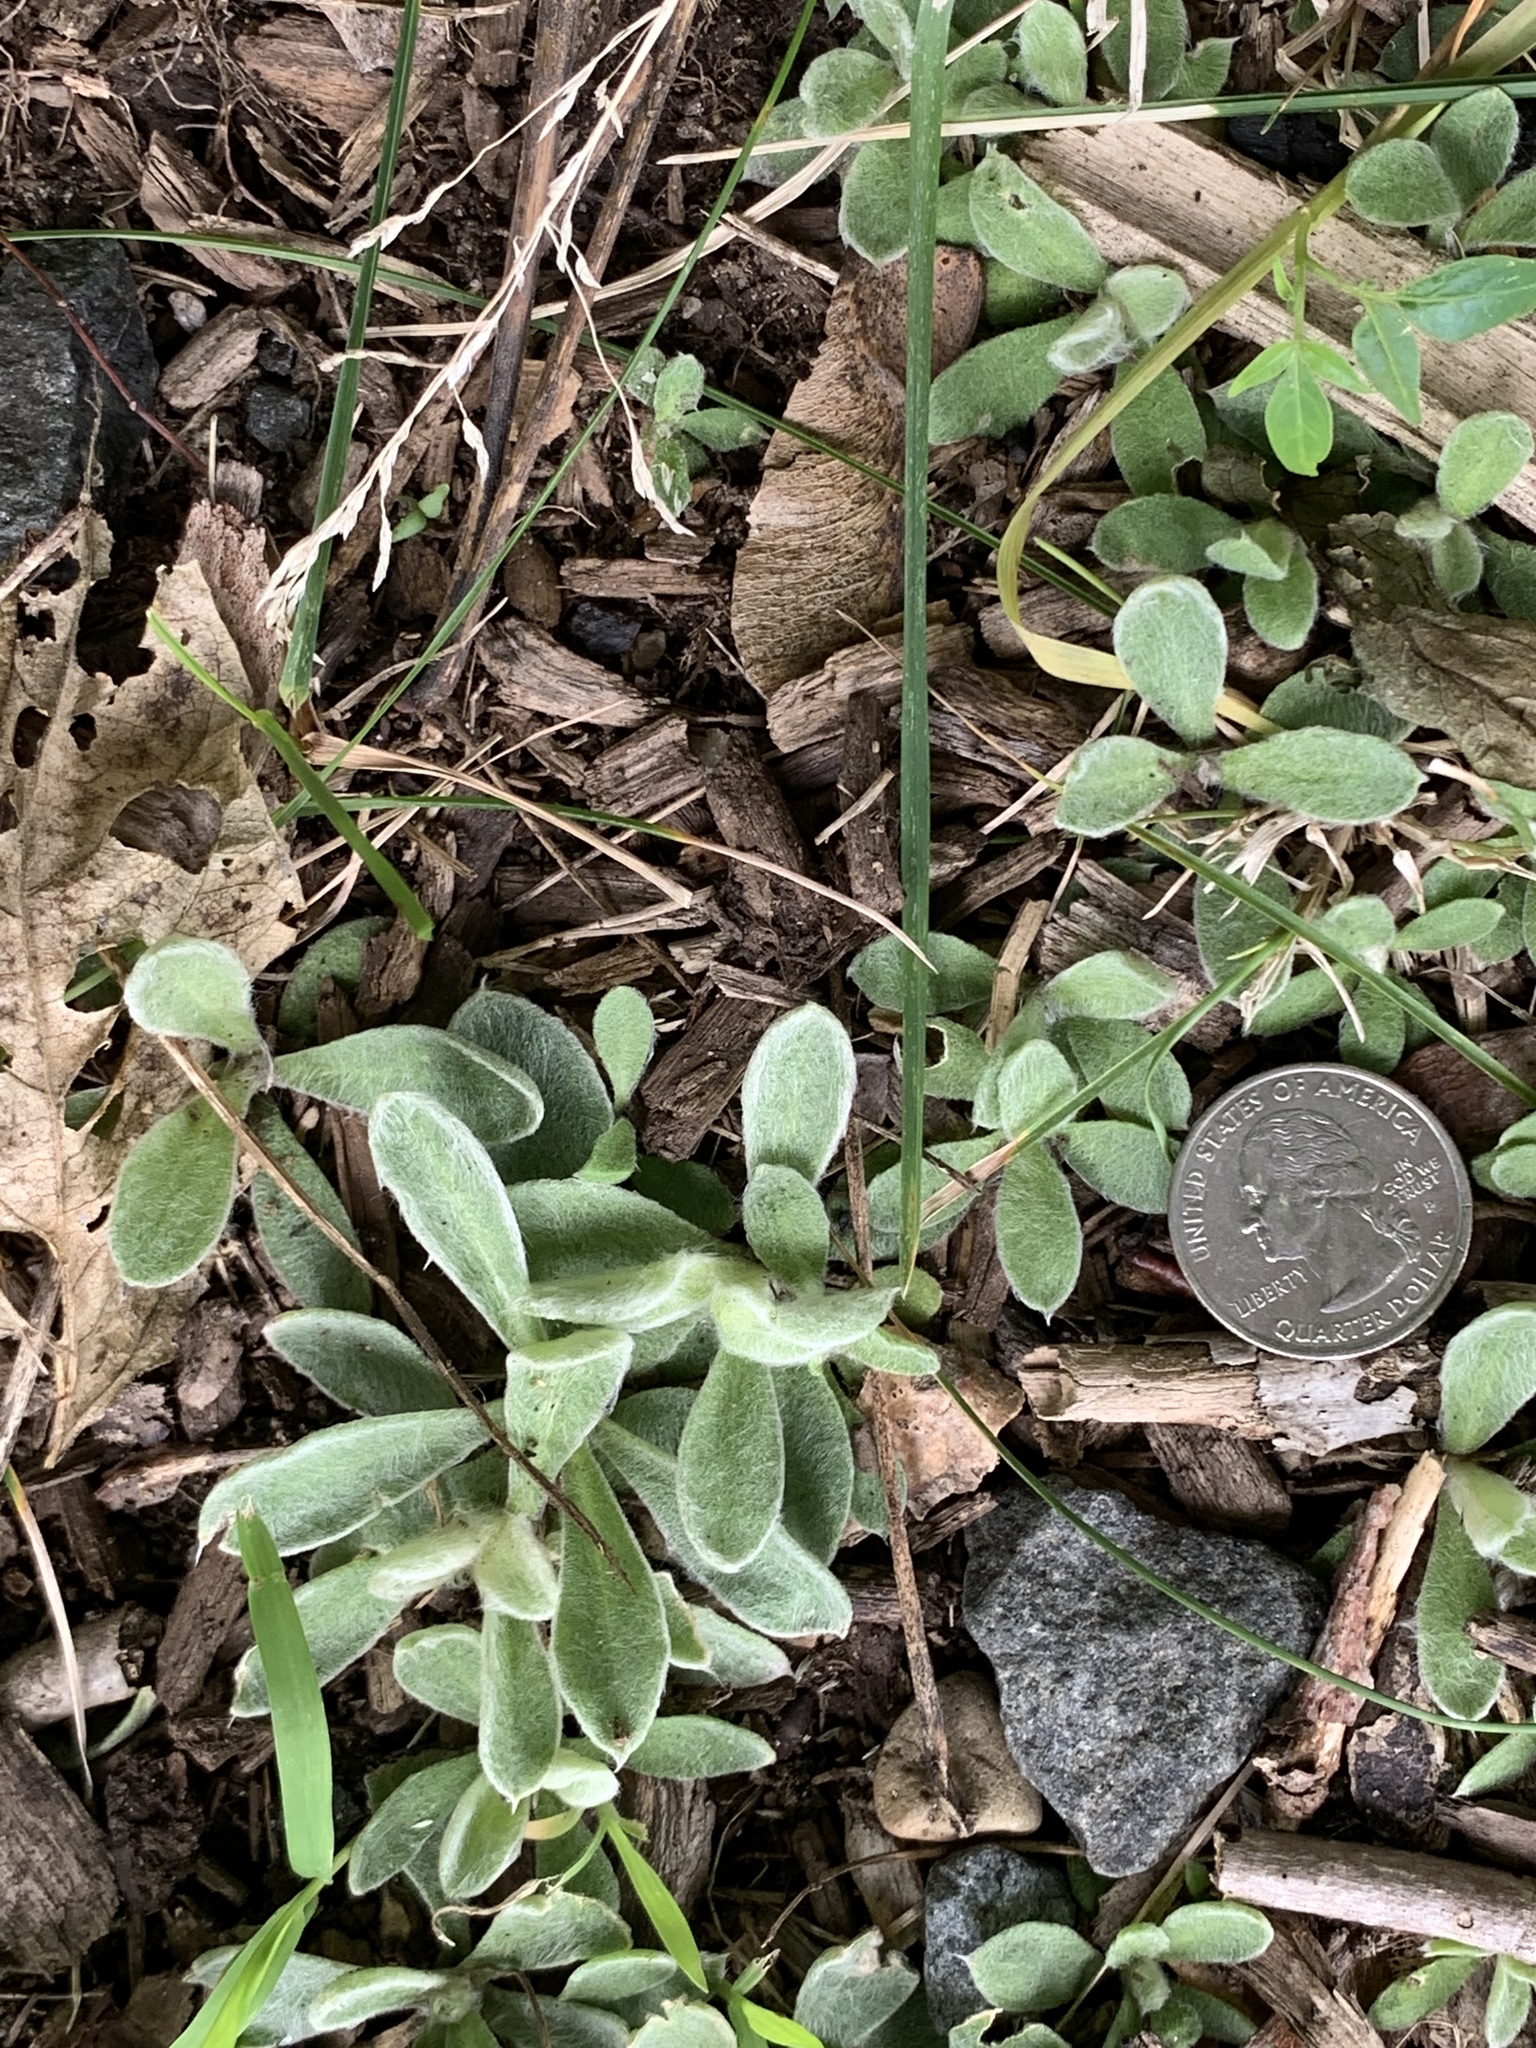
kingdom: Plantae
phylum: Tracheophyta
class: Magnoliopsida
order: Caryophyllales
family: Caryophyllaceae
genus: Silene
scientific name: Silene coronaria
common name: Rose campion
